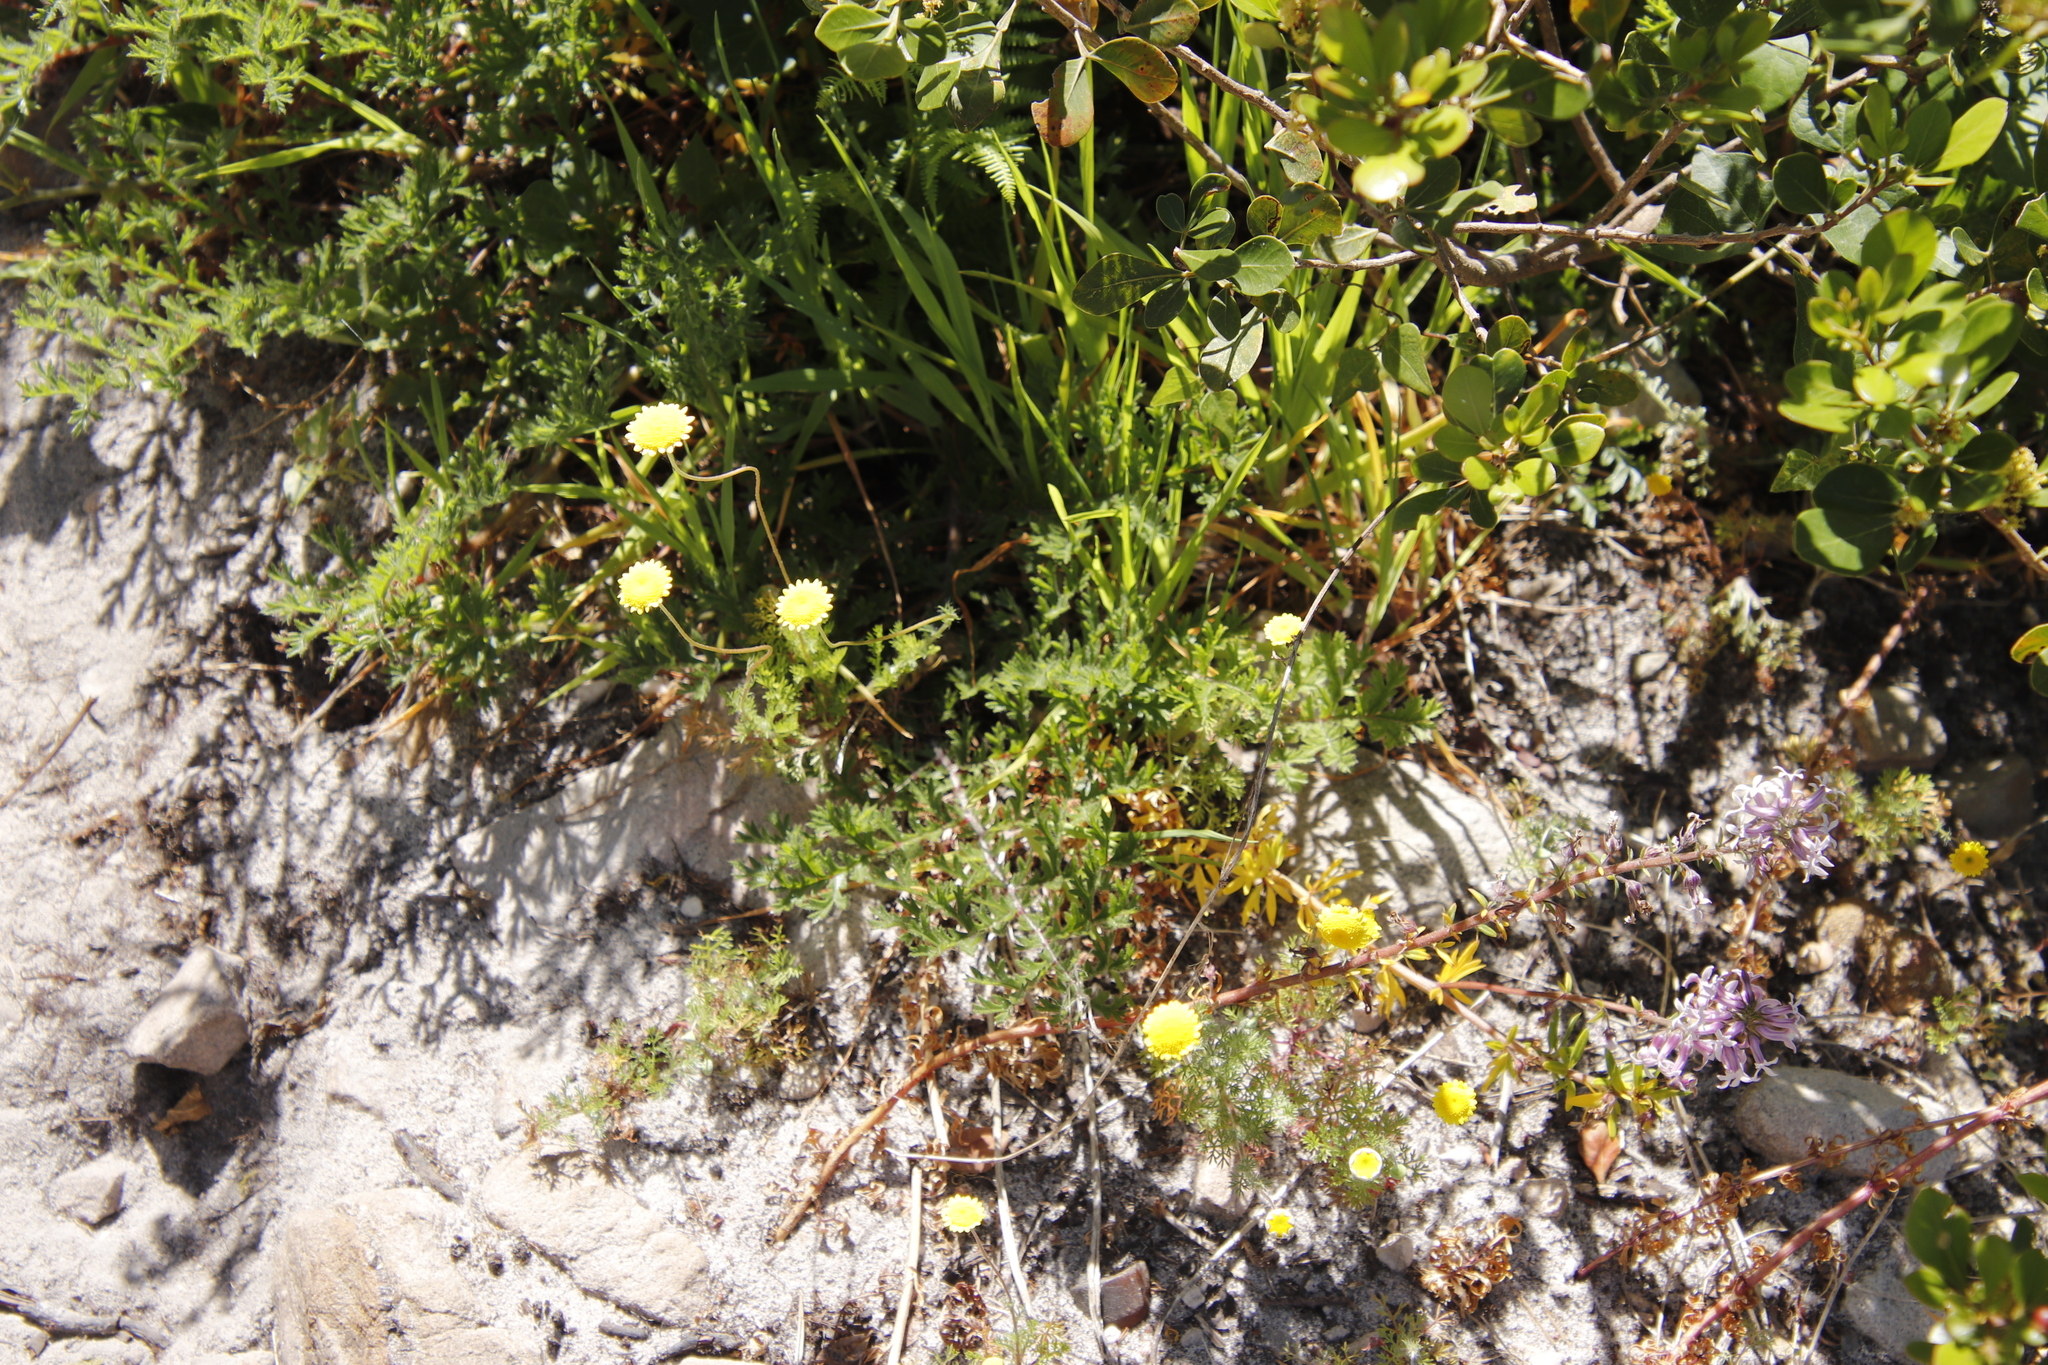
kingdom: Plantae
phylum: Tracheophyta
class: Magnoliopsida
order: Asterales
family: Asteraceae
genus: Cotula
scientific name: Cotula pruinosa
